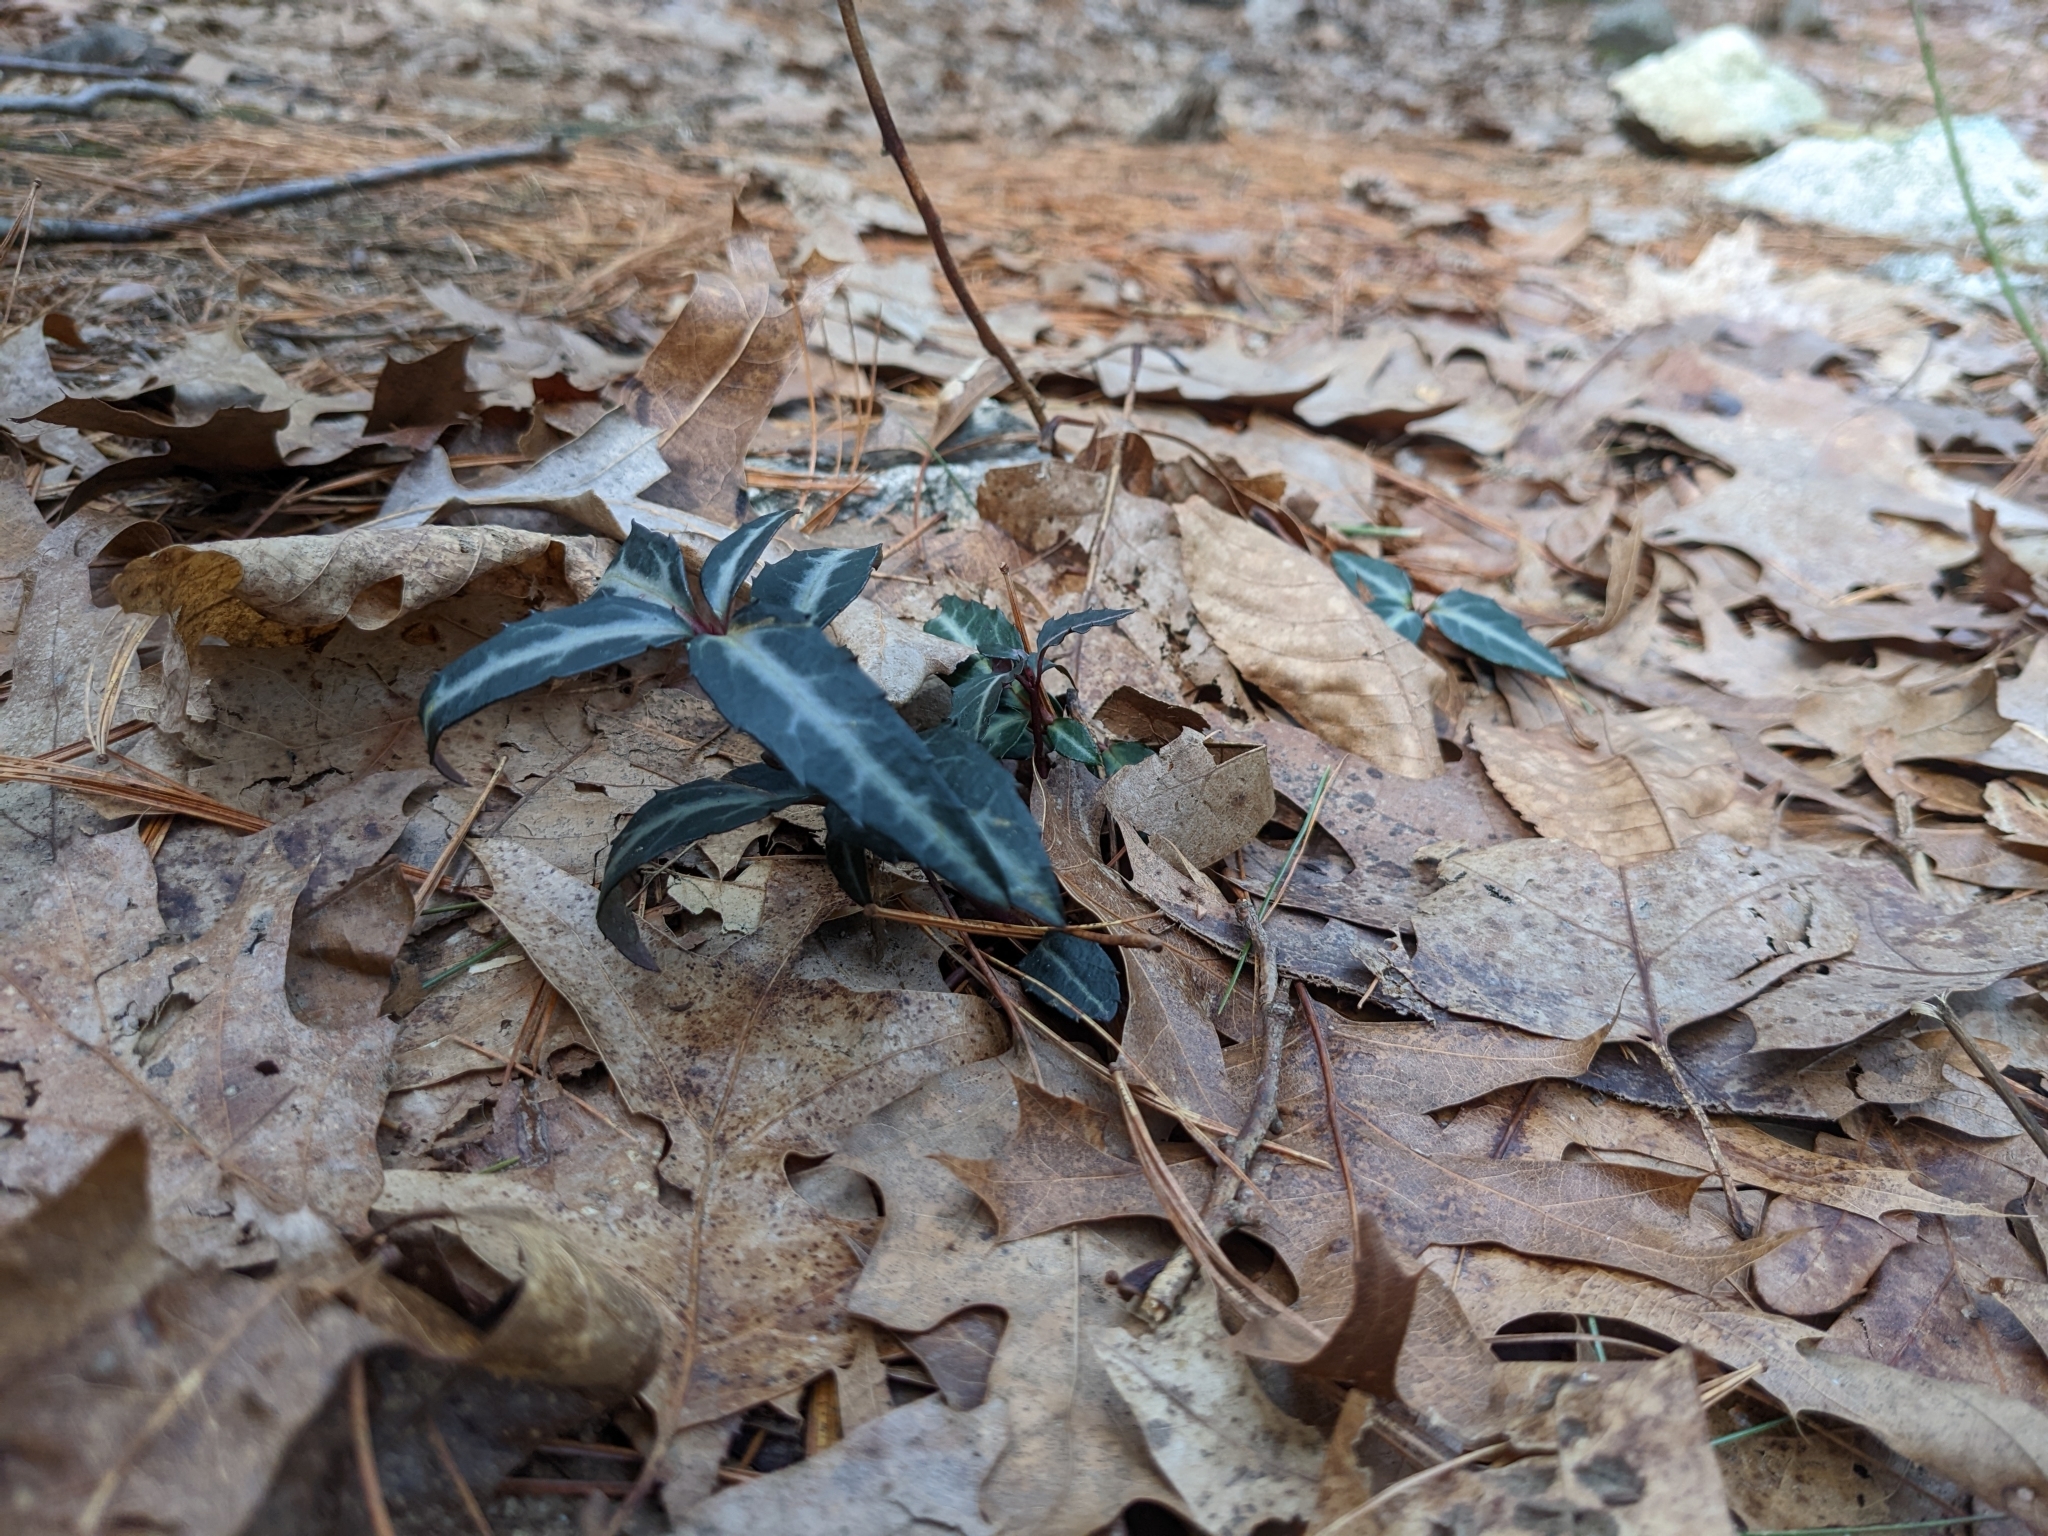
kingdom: Plantae
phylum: Tracheophyta
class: Magnoliopsida
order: Ericales
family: Ericaceae
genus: Chimaphila
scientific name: Chimaphila maculata
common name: Spotted pipsissewa
